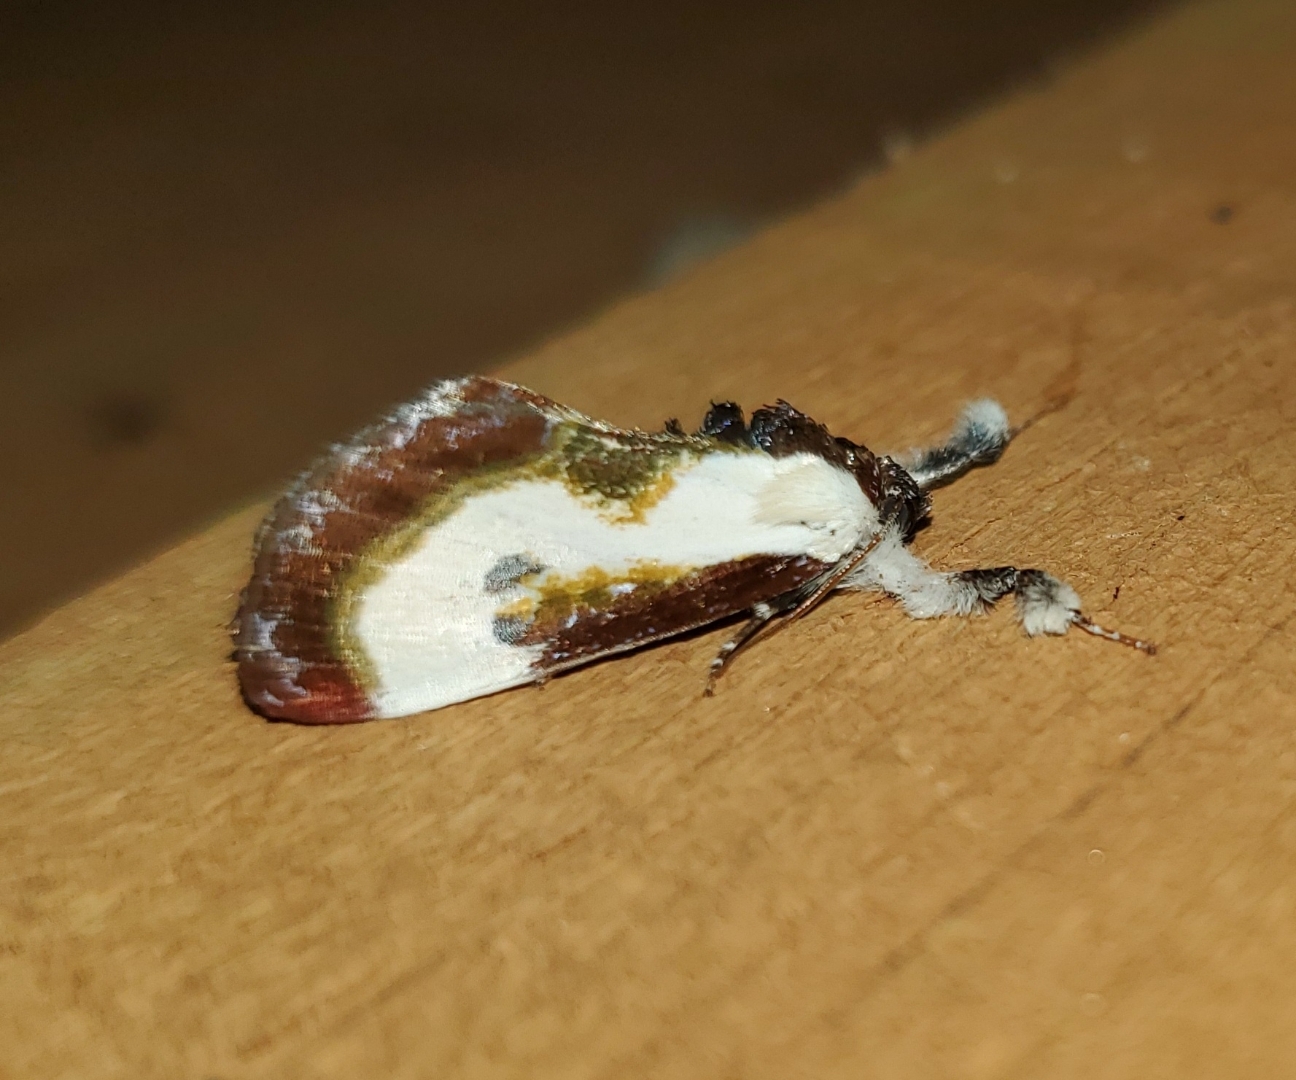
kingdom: Animalia
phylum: Arthropoda
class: Insecta
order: Lepidoptera
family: Noctuidae
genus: Eudryas
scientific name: Eudryas grata
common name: Beautiful wood-nymph
